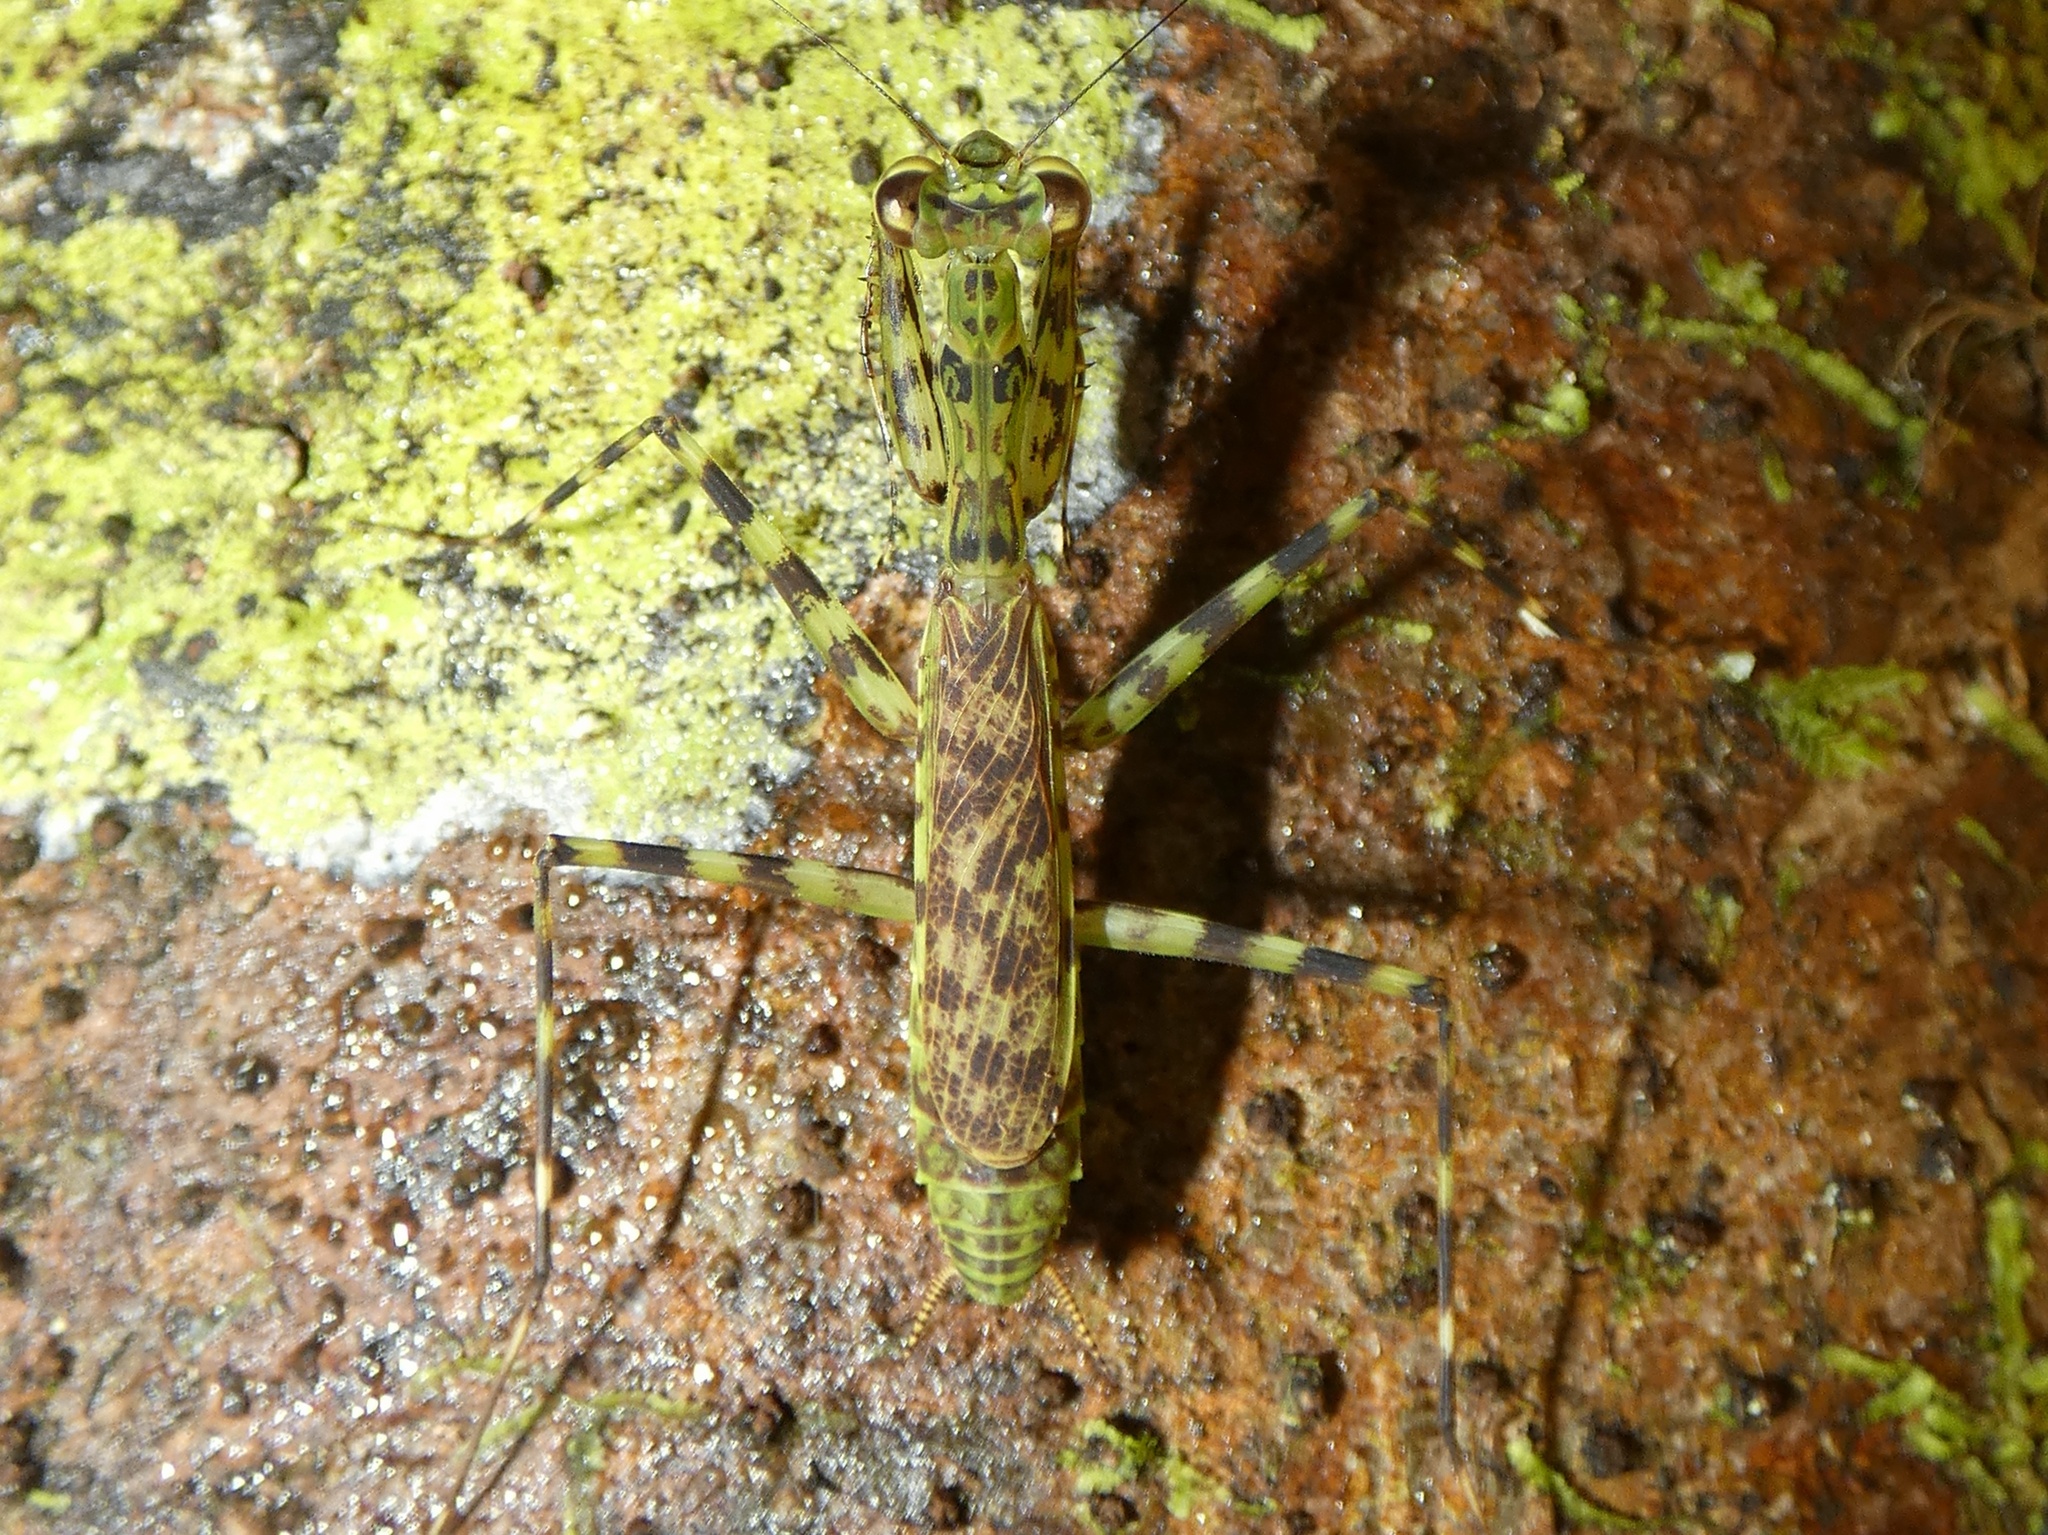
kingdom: Animalia
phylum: Arthropoda
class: Insecta
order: Mantodea
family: Liturgusidae
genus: Liturgusa
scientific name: Liturgusa cursor
